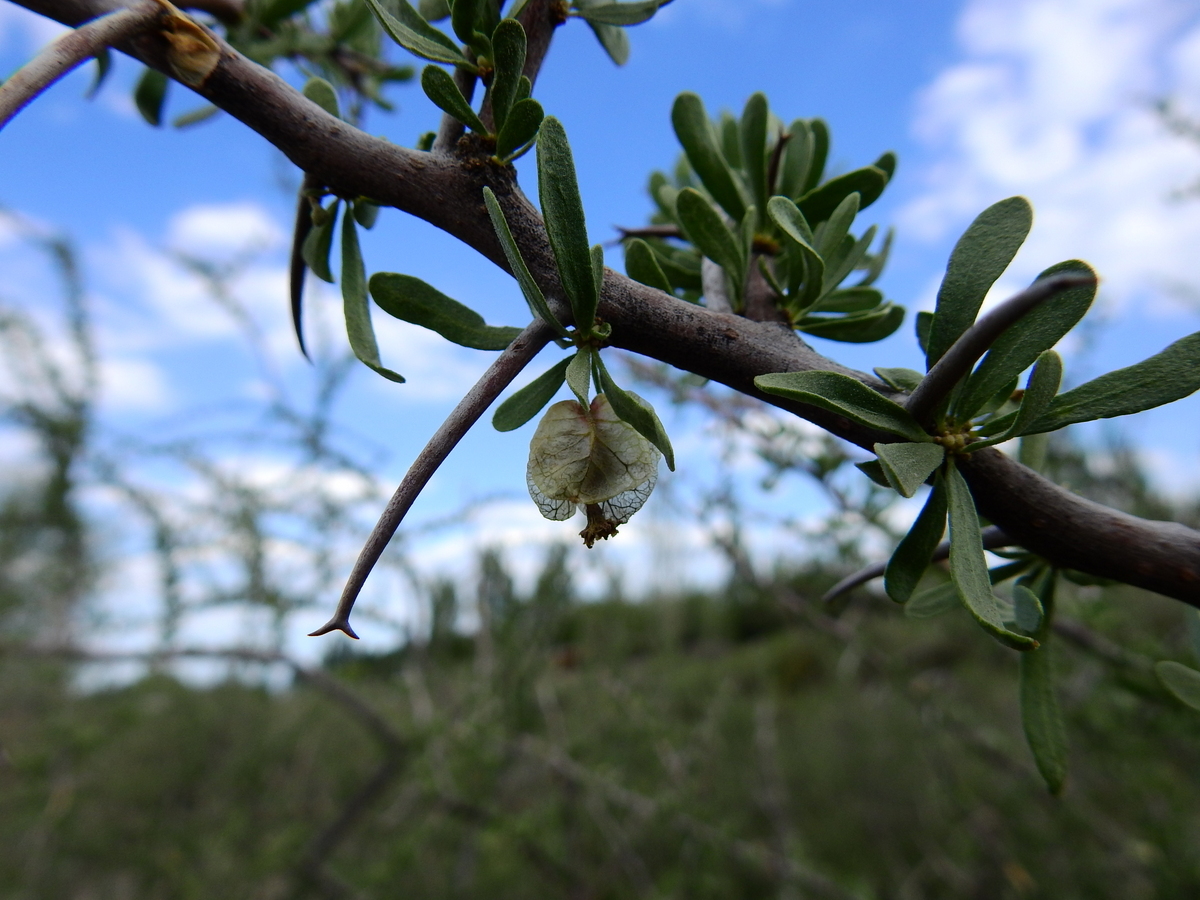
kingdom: Plantae
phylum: Tracheophyta
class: Magnoliopsida
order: Caryophyllales
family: Nyctaginaceae
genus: Bougainvillea
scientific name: Bougainvillea spinosa
